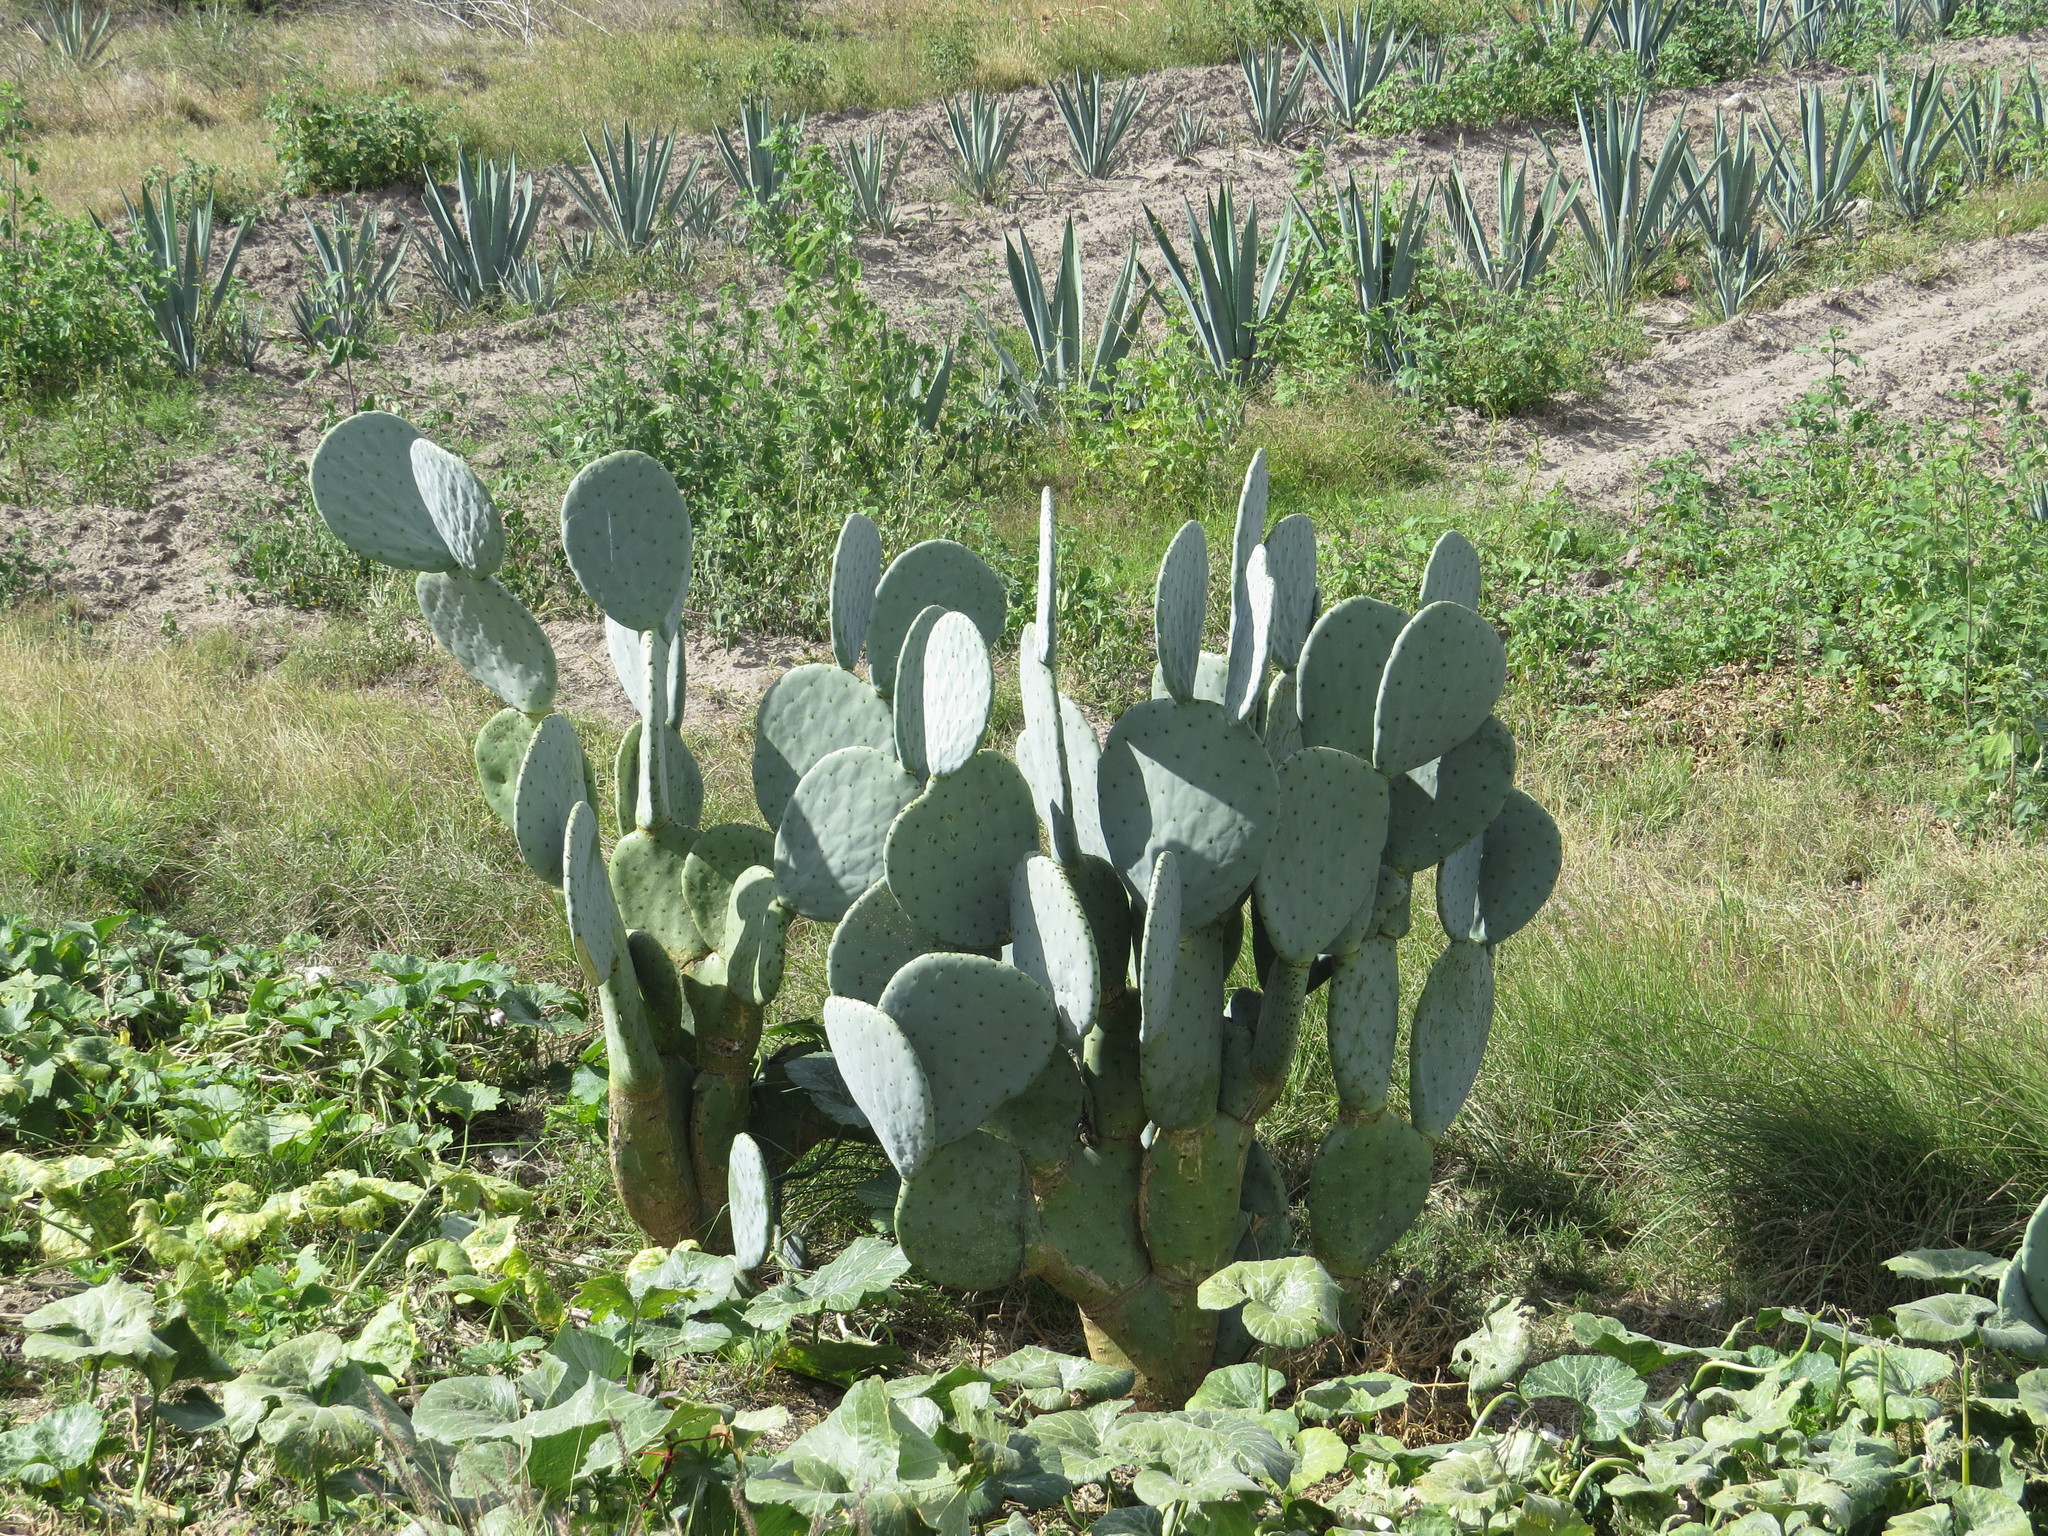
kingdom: Plantae
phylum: Tracheophyta
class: Magnoliopsida
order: Caryophyllales
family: Cactaceae
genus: Opuntia
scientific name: Opuntia robusta
